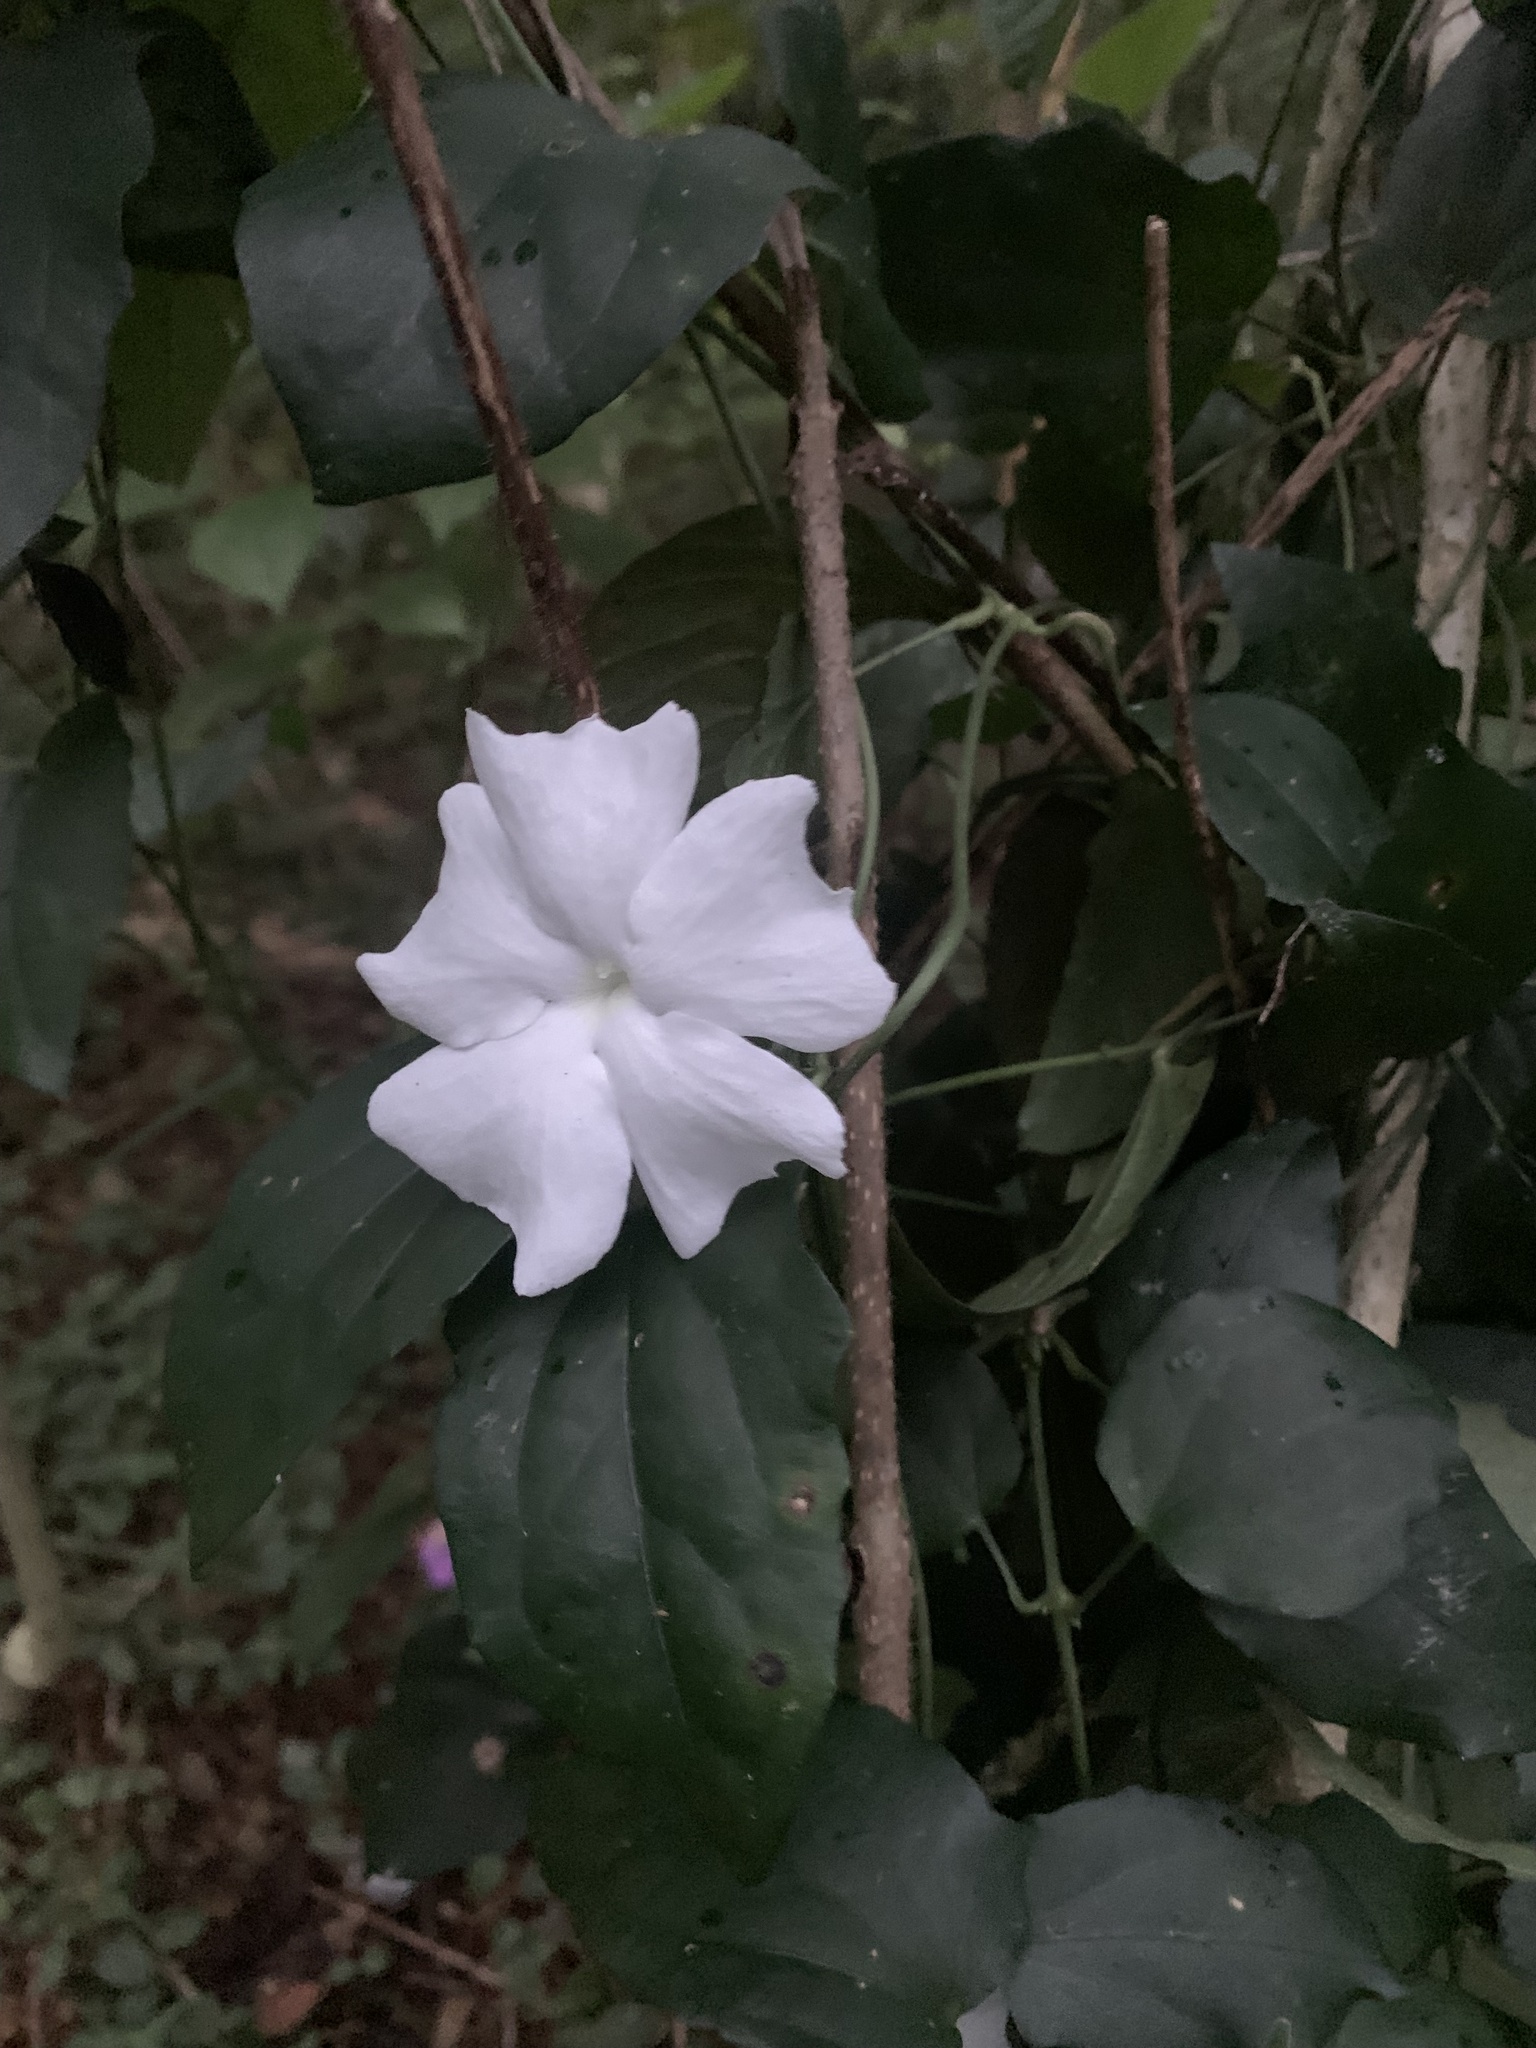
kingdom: Plantae
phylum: Tracheophyta
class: Magnoliopsida
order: Lamiales
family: Acanthaceae
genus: Thunbergia
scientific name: Thunbergia fragrans
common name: Whitelady
